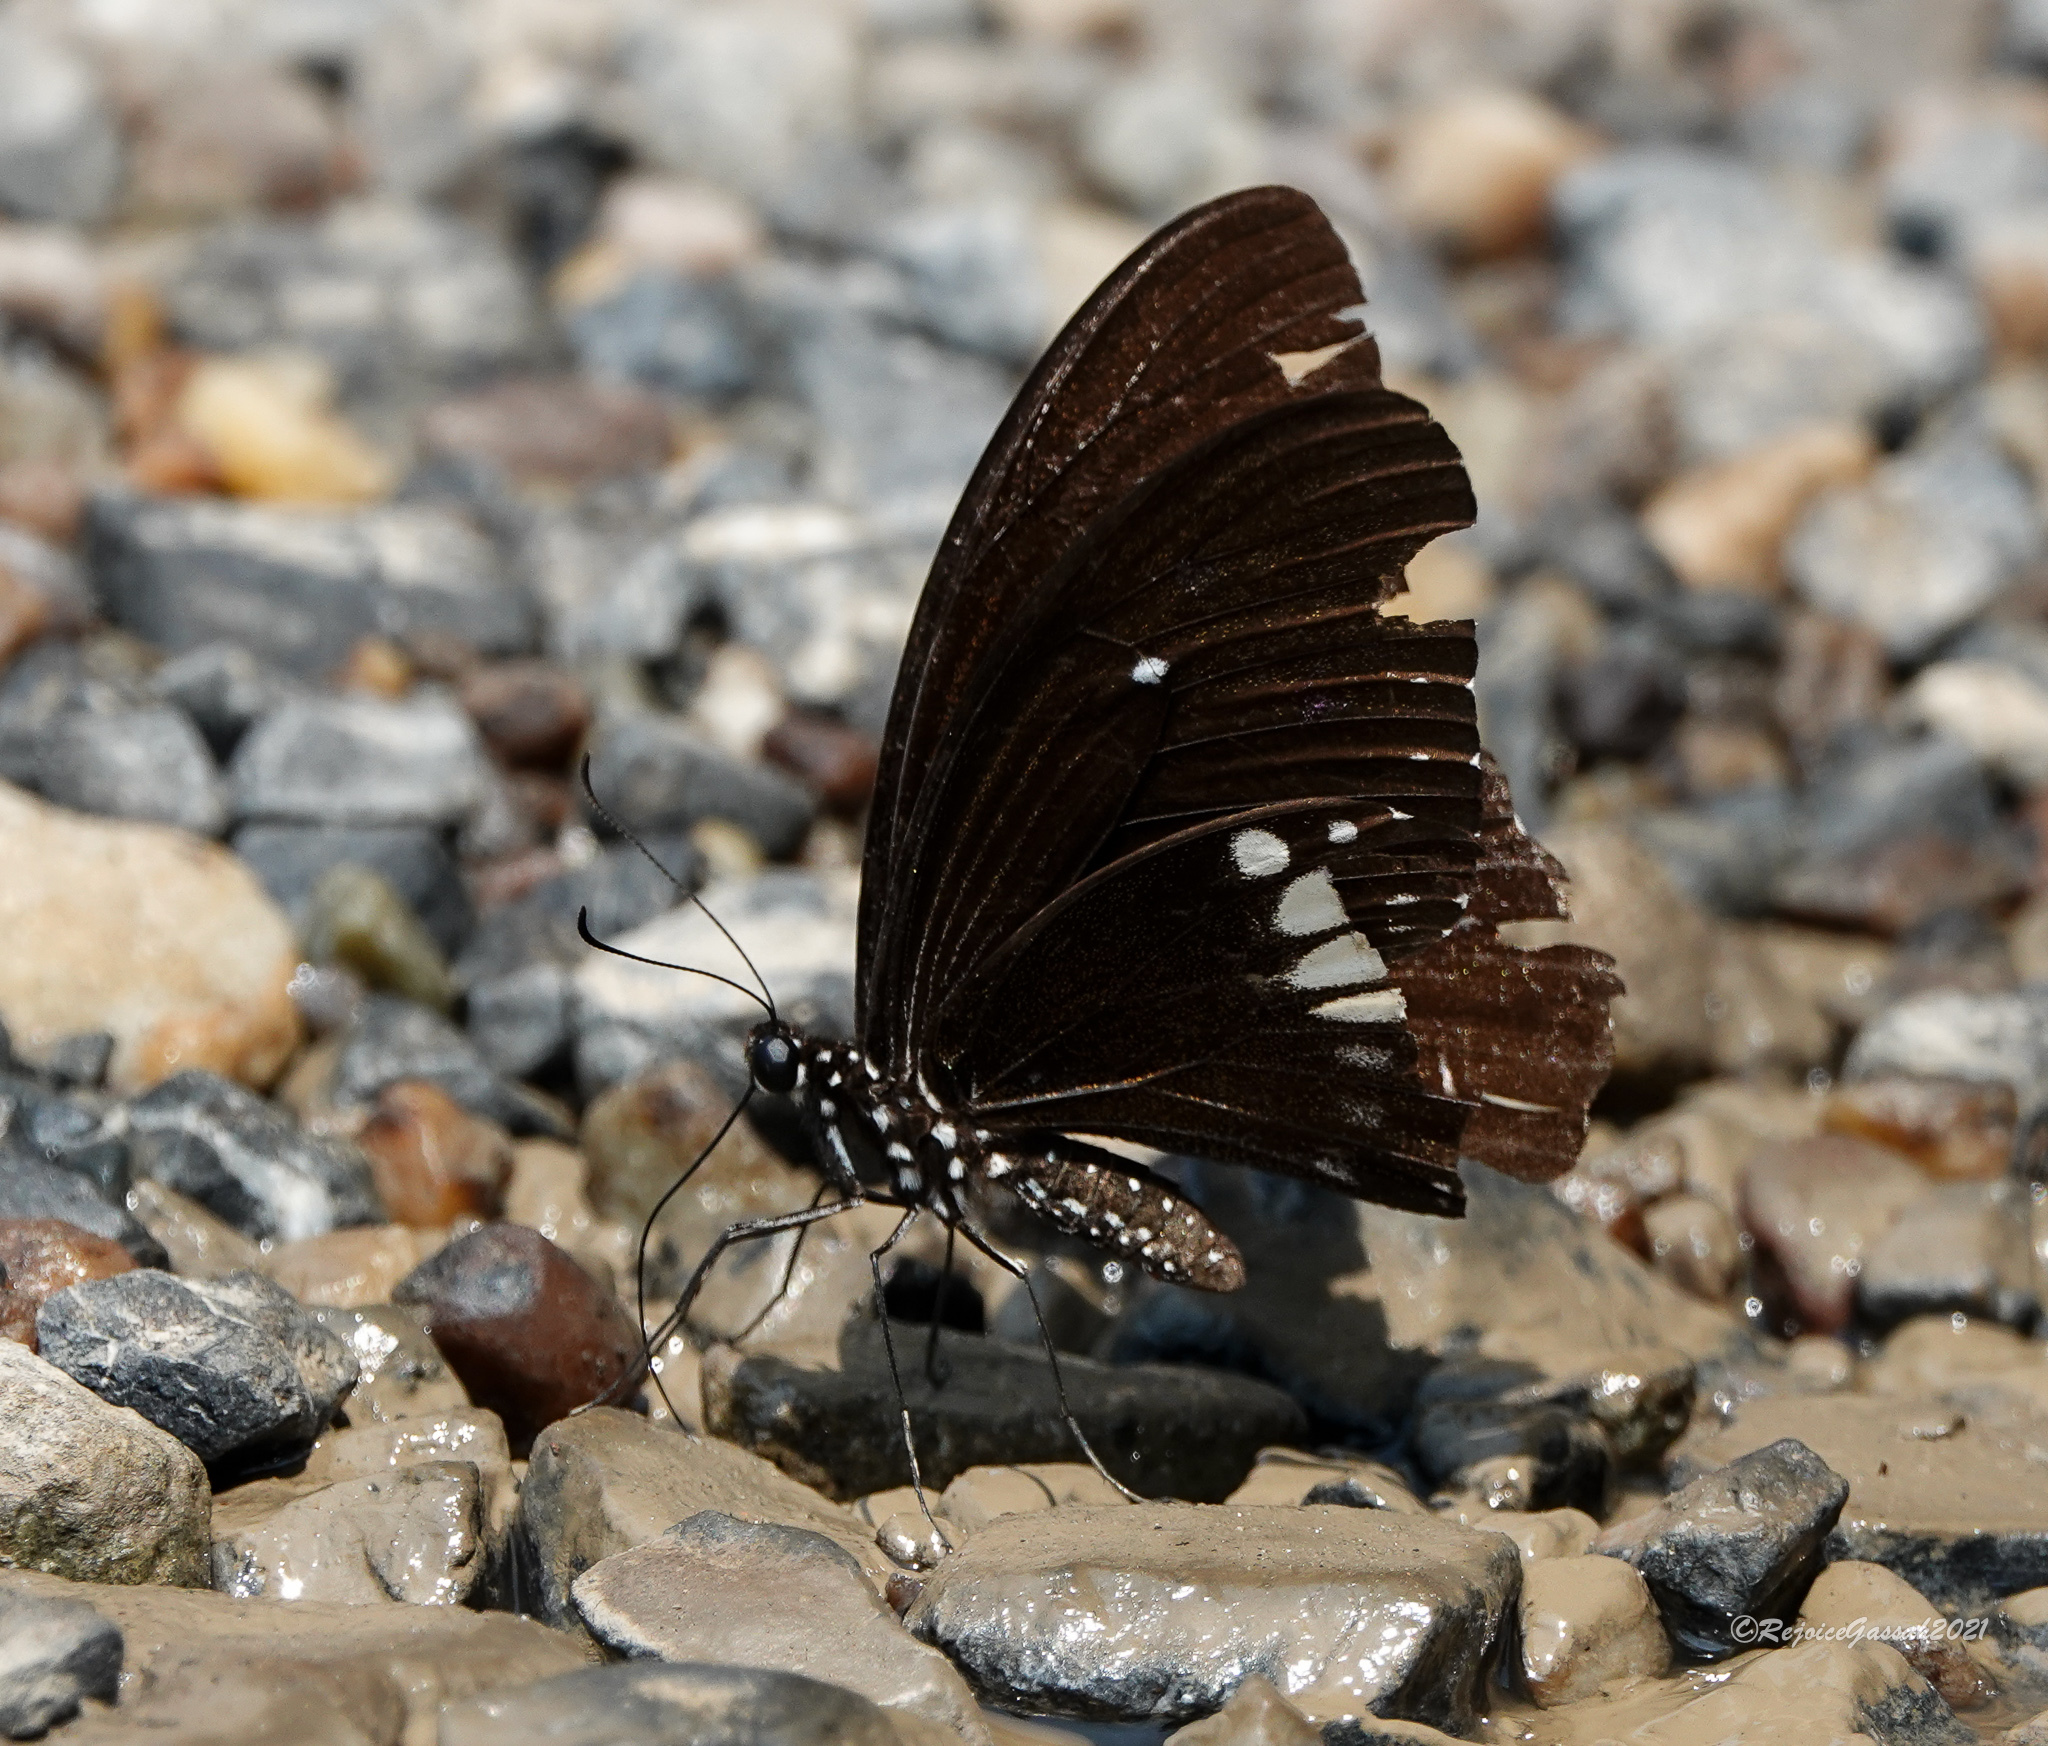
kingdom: Animalia
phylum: Arthropoda
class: Insecta
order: Lepidoptera
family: Papilionidae
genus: Papilio
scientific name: Papilio castor
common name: Common raven
